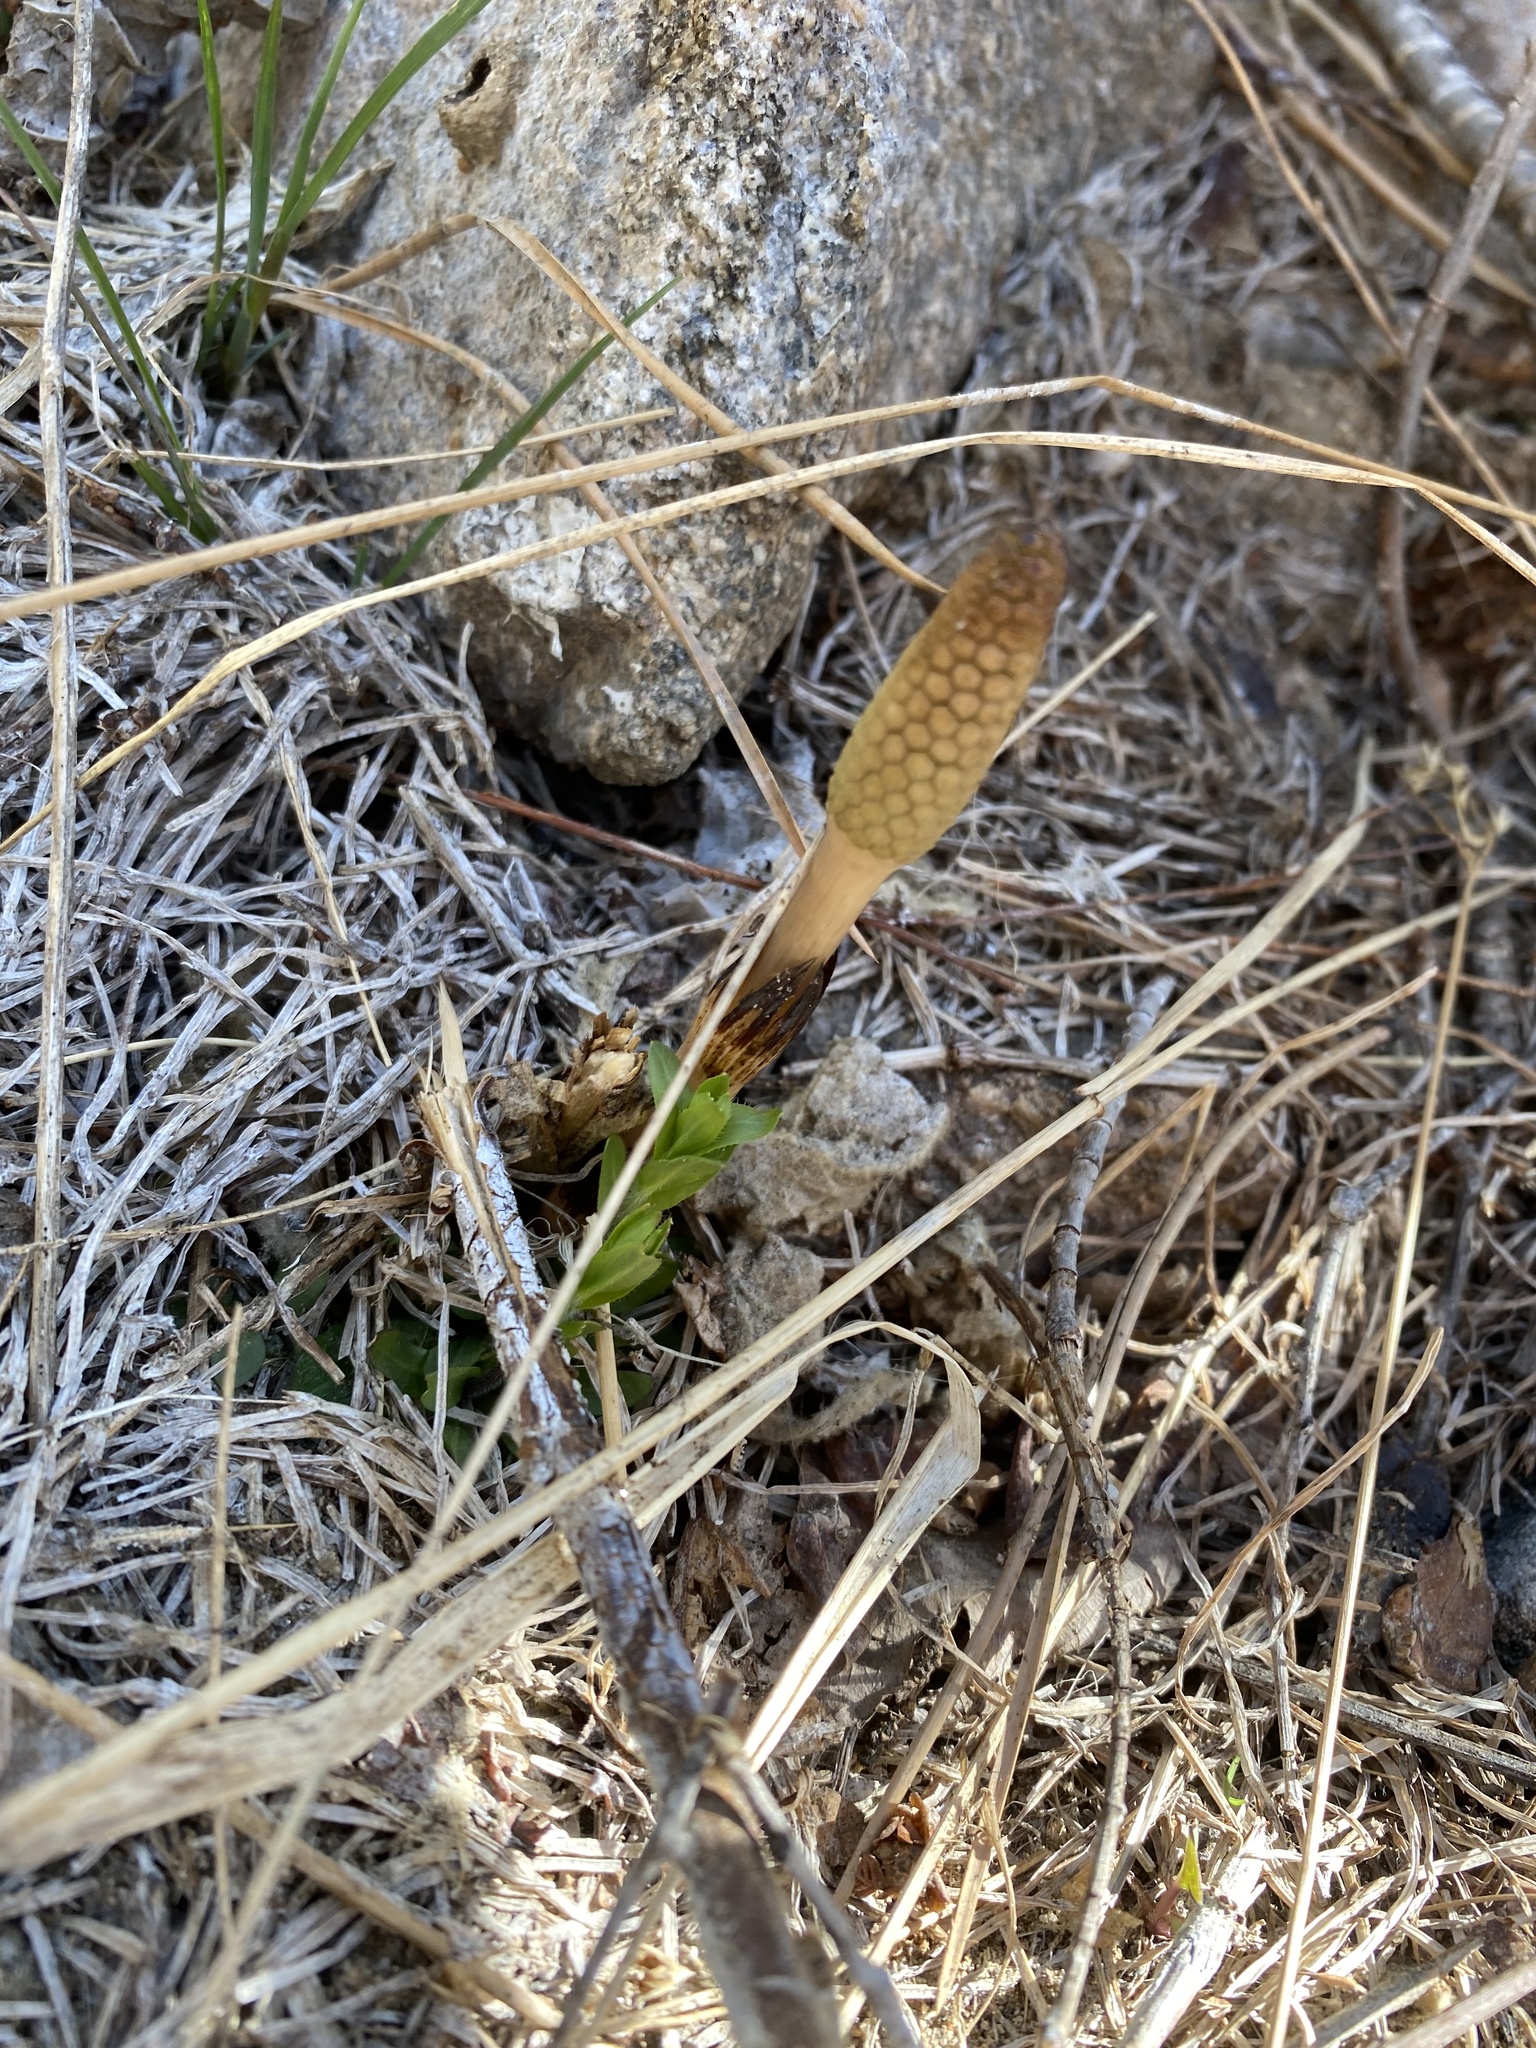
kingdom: Plantae
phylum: Tracheophyta
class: Polypodiopsida
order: Equisetales
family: Equisetaceae
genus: Equisetum
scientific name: Equisetum arvense
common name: Field horsetail
